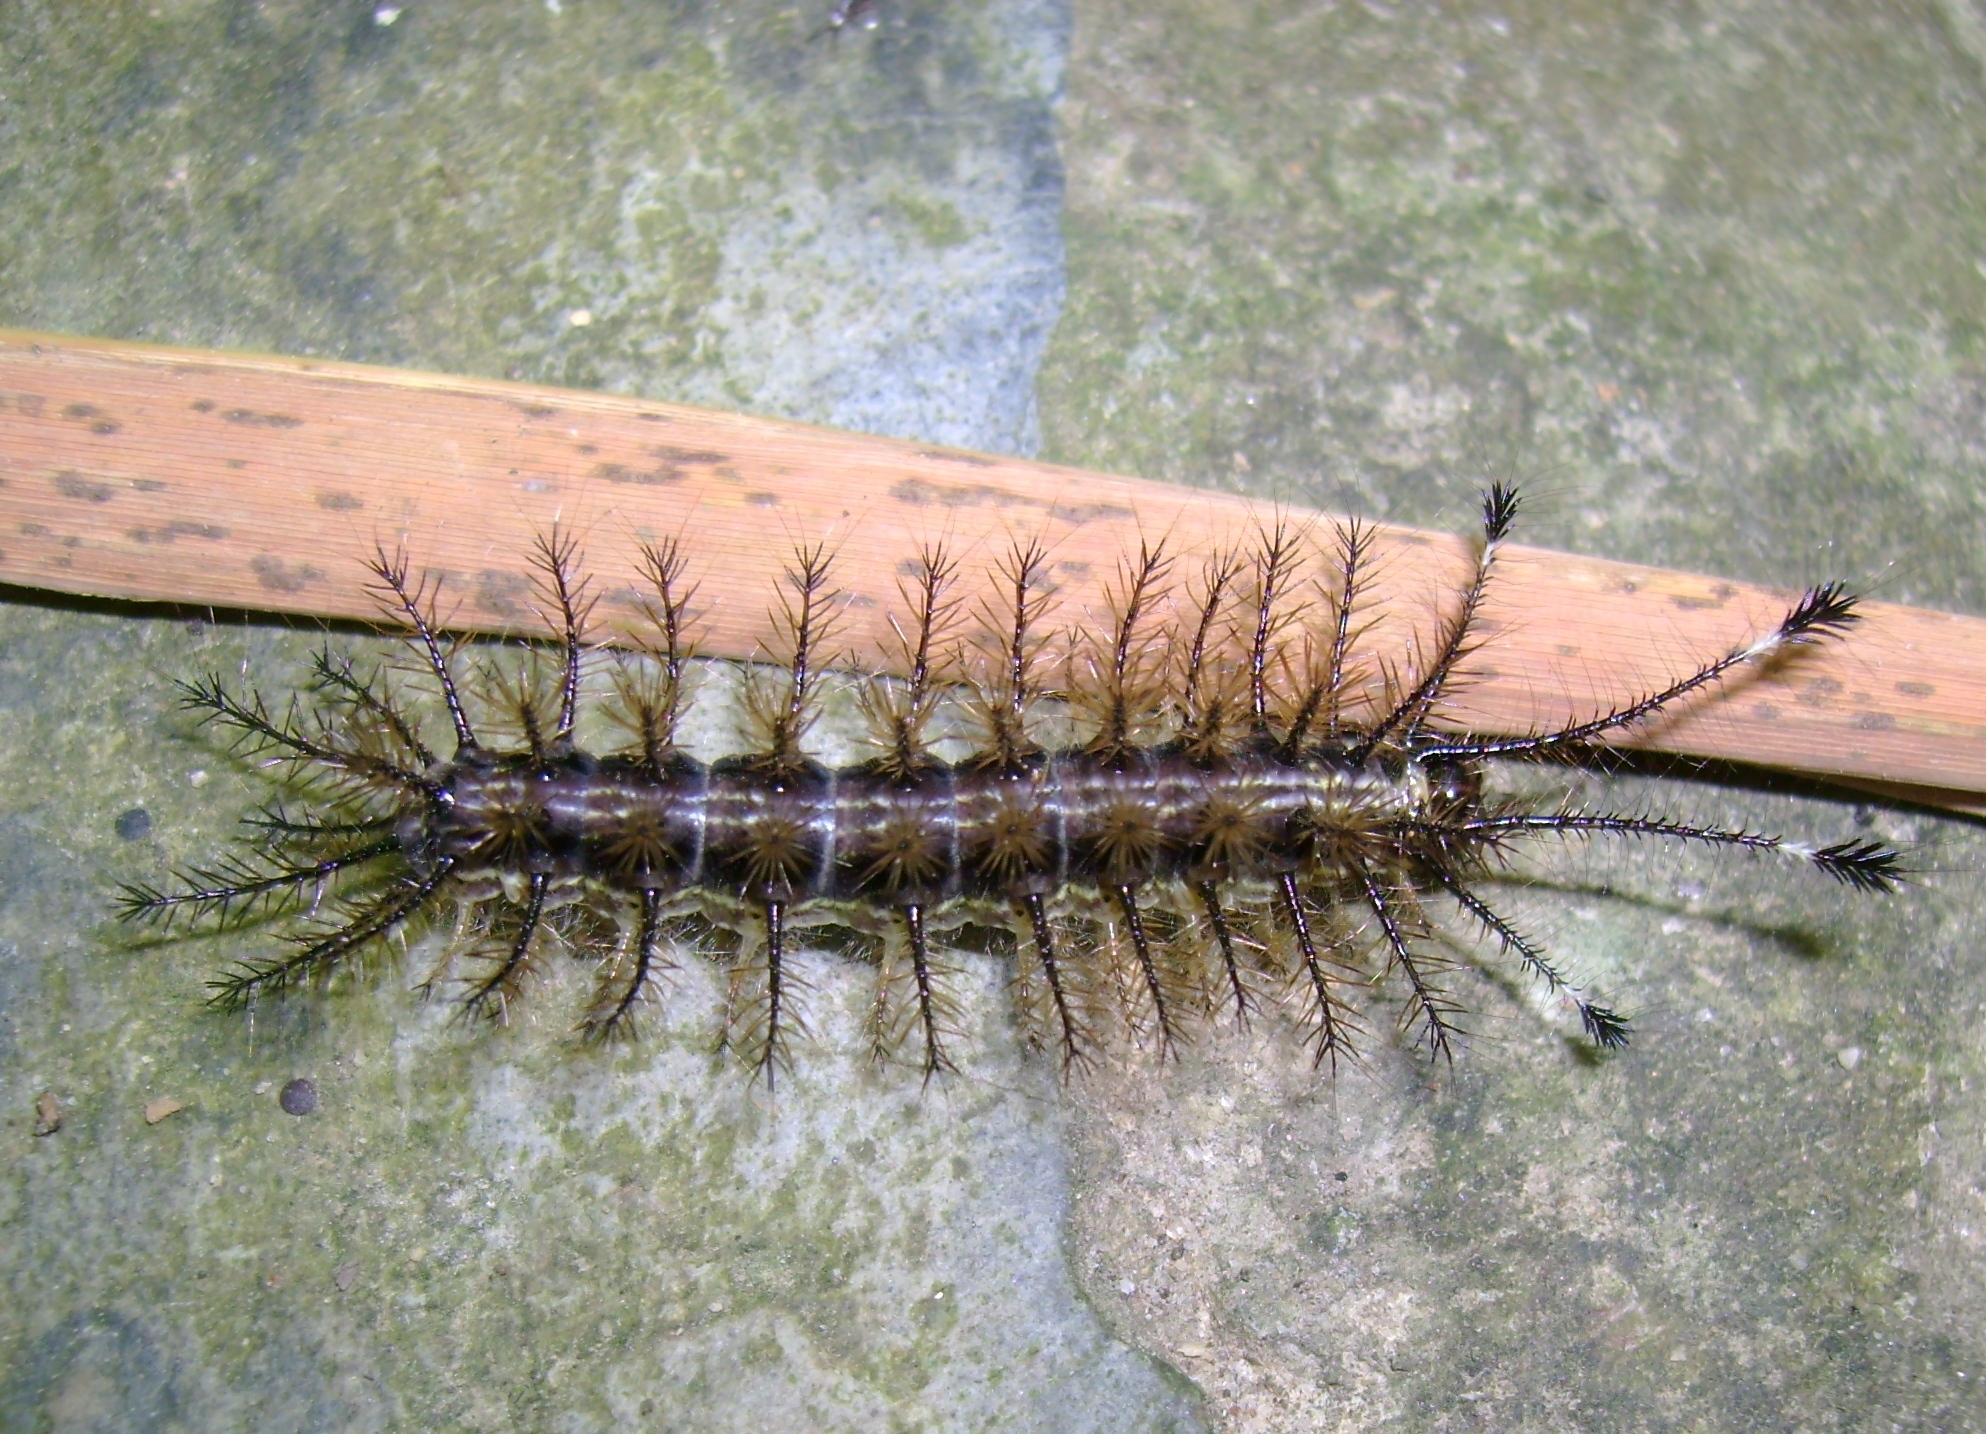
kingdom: Animalia
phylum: Arthropoda
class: Insecta
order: Lepidoptera
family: Saturniidae
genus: Hylesia
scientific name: Hylesia metabus
